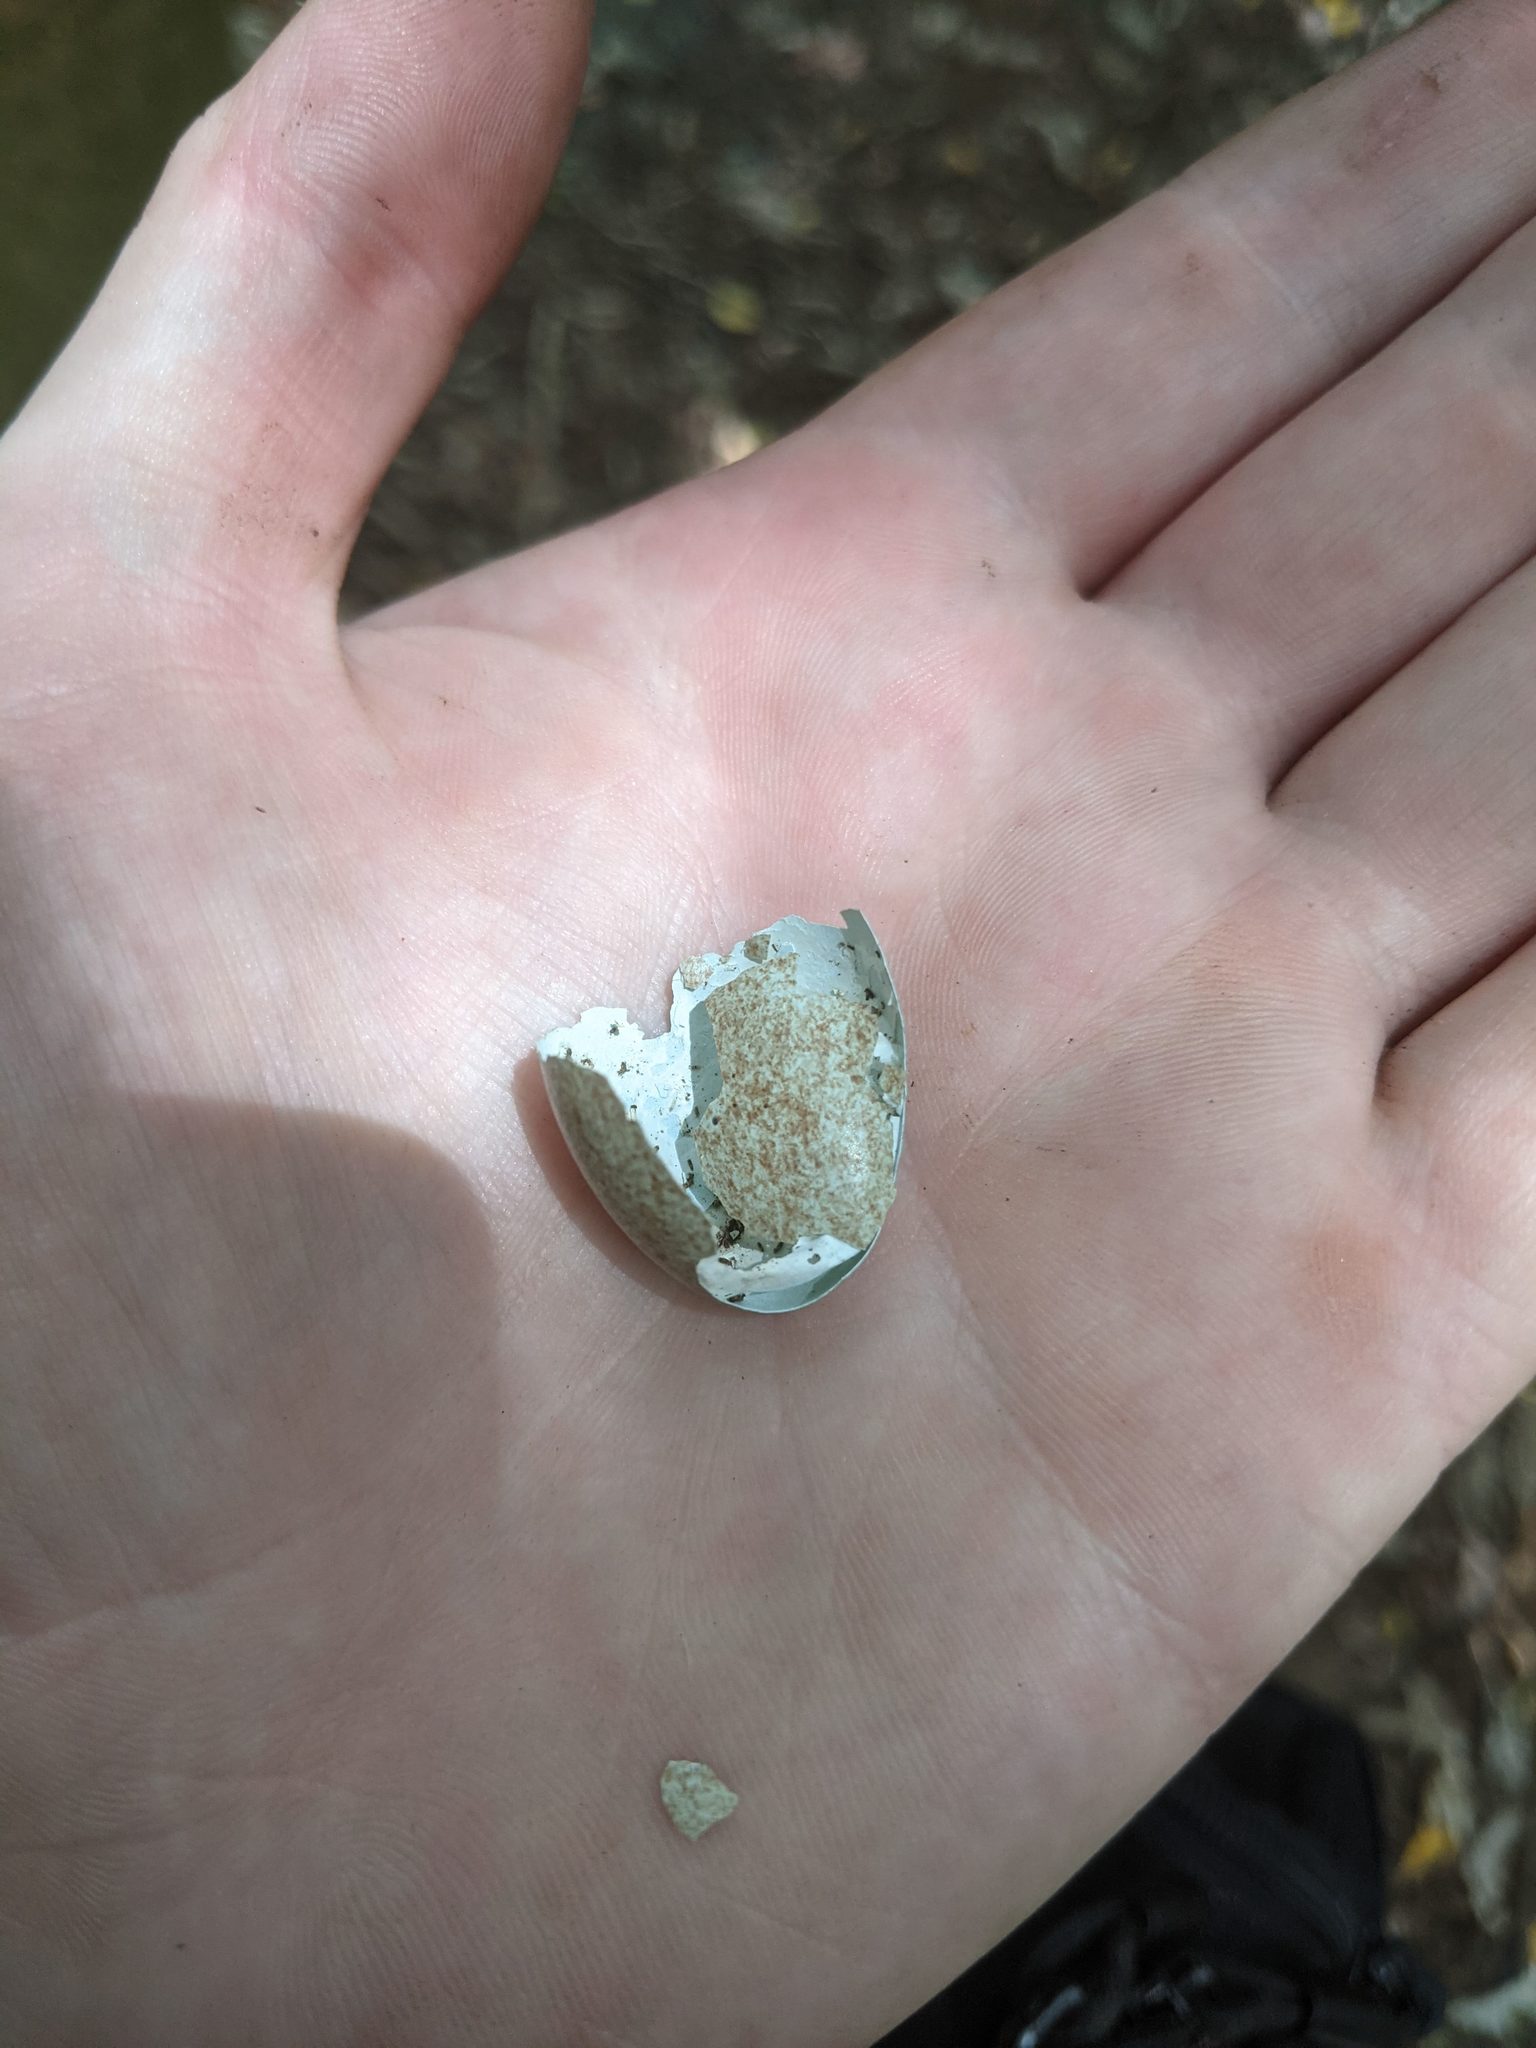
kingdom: Animalia
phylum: Chordata
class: Aves
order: Passeriformes
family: Turdidae
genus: Turdus
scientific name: Turdus merula
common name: Common blackbird
